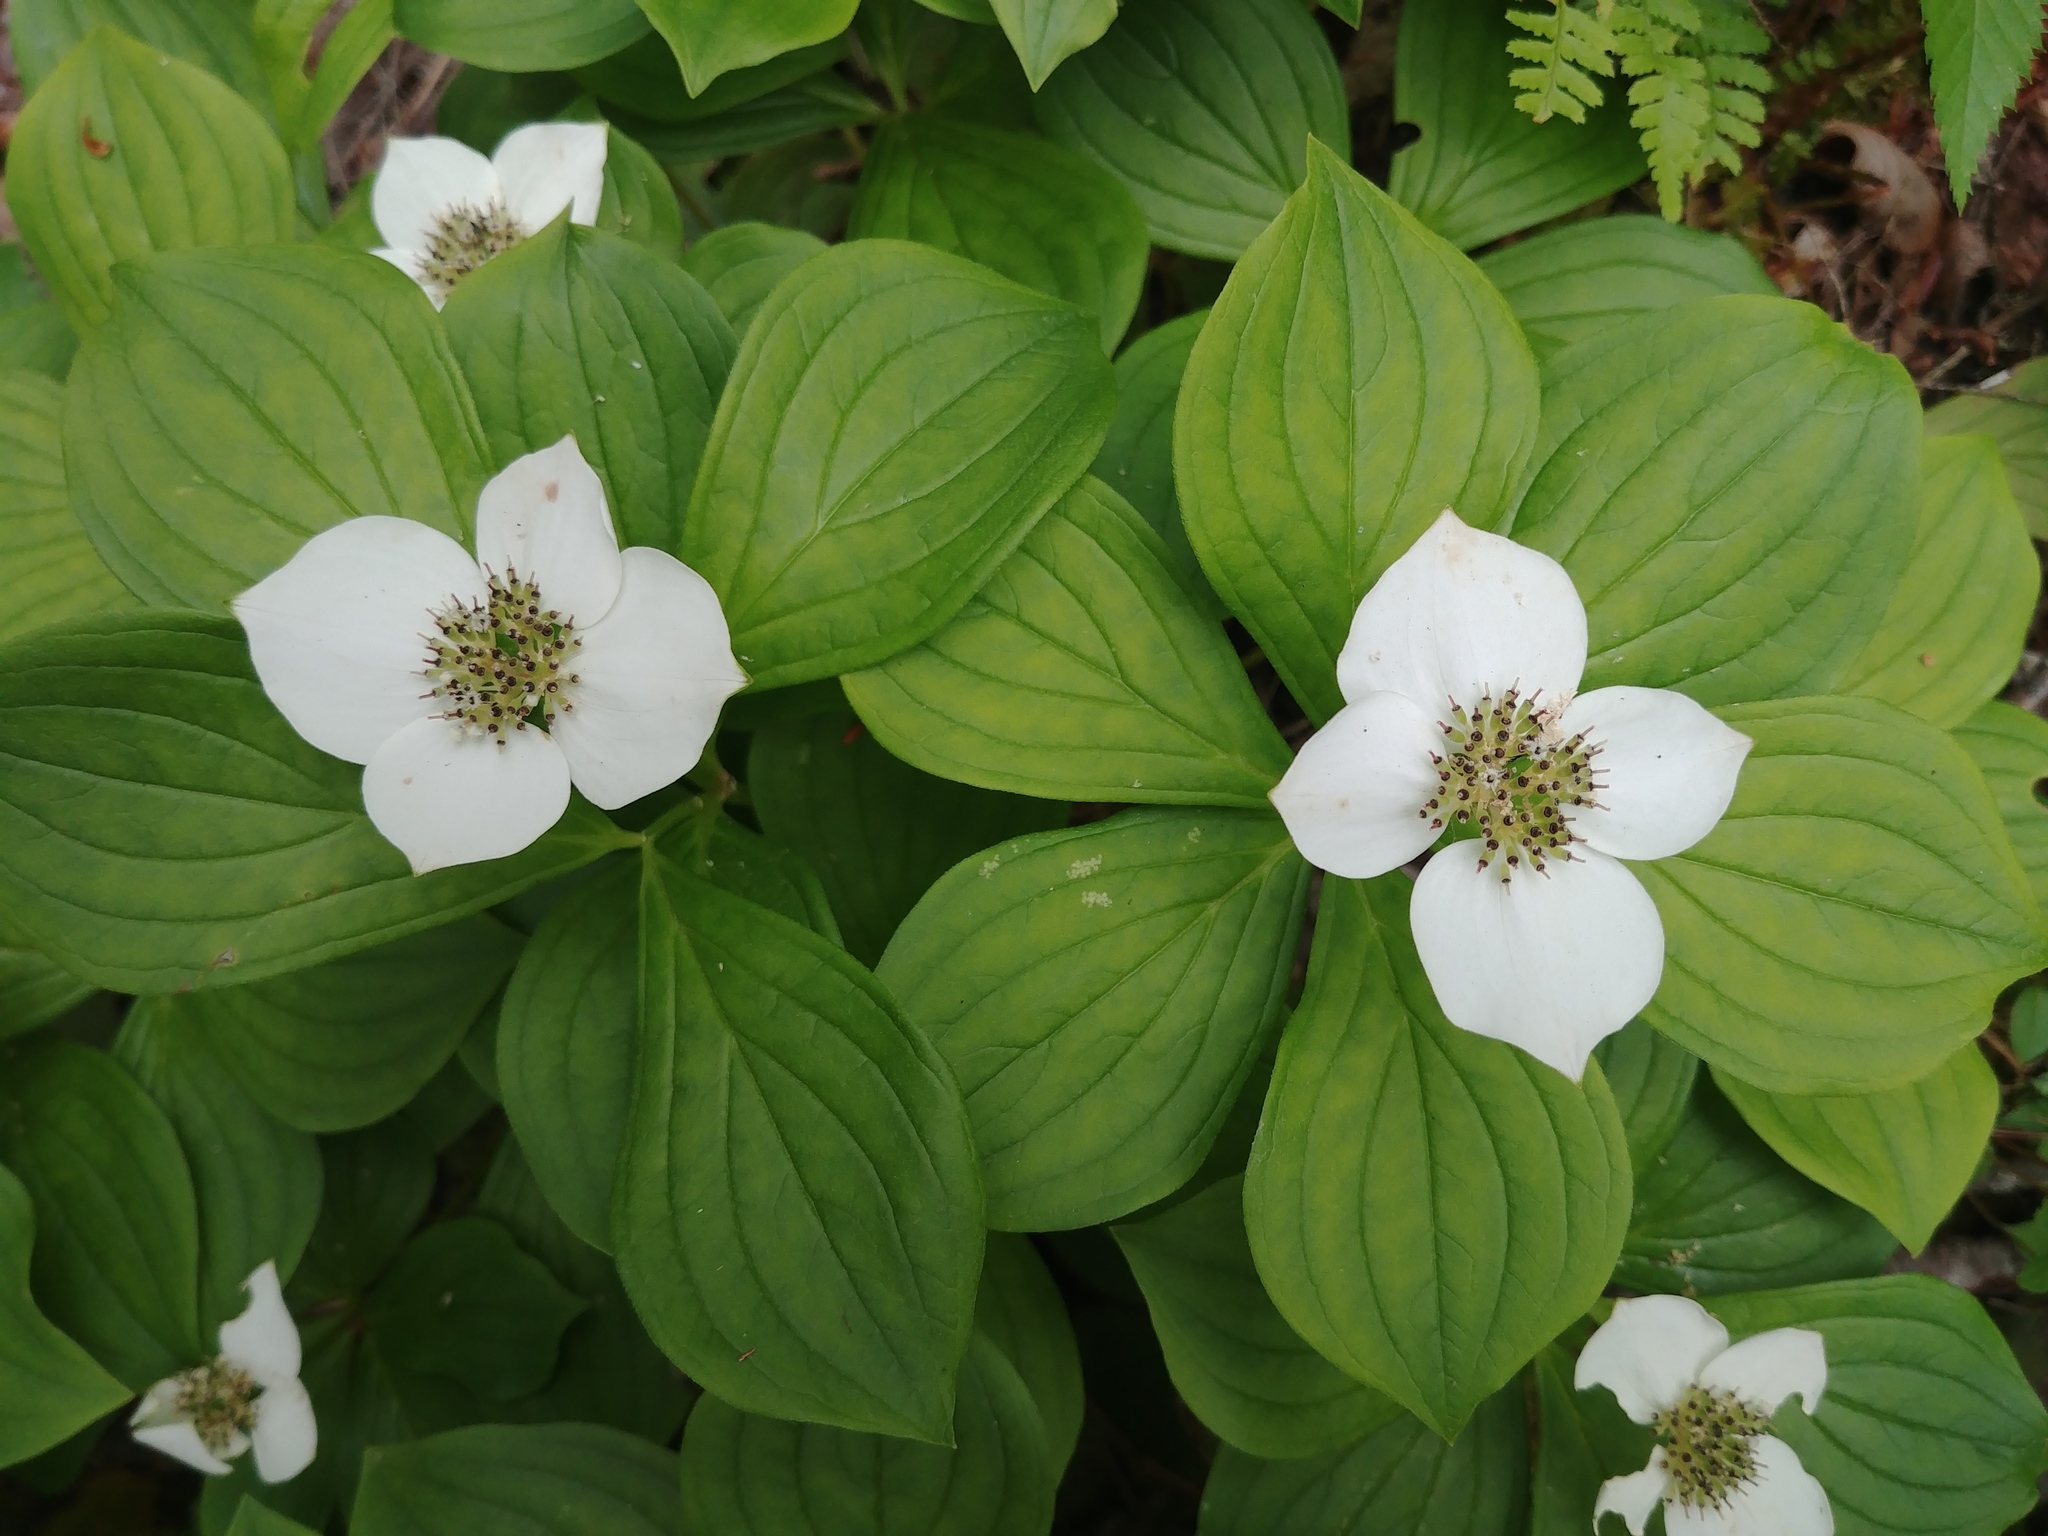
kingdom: Plantae
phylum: Tracheophyta
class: Magnoliopsida
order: Cornales
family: Cornaceae
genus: Cornus
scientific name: Cornus canadensis
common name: Creeping dogwood
